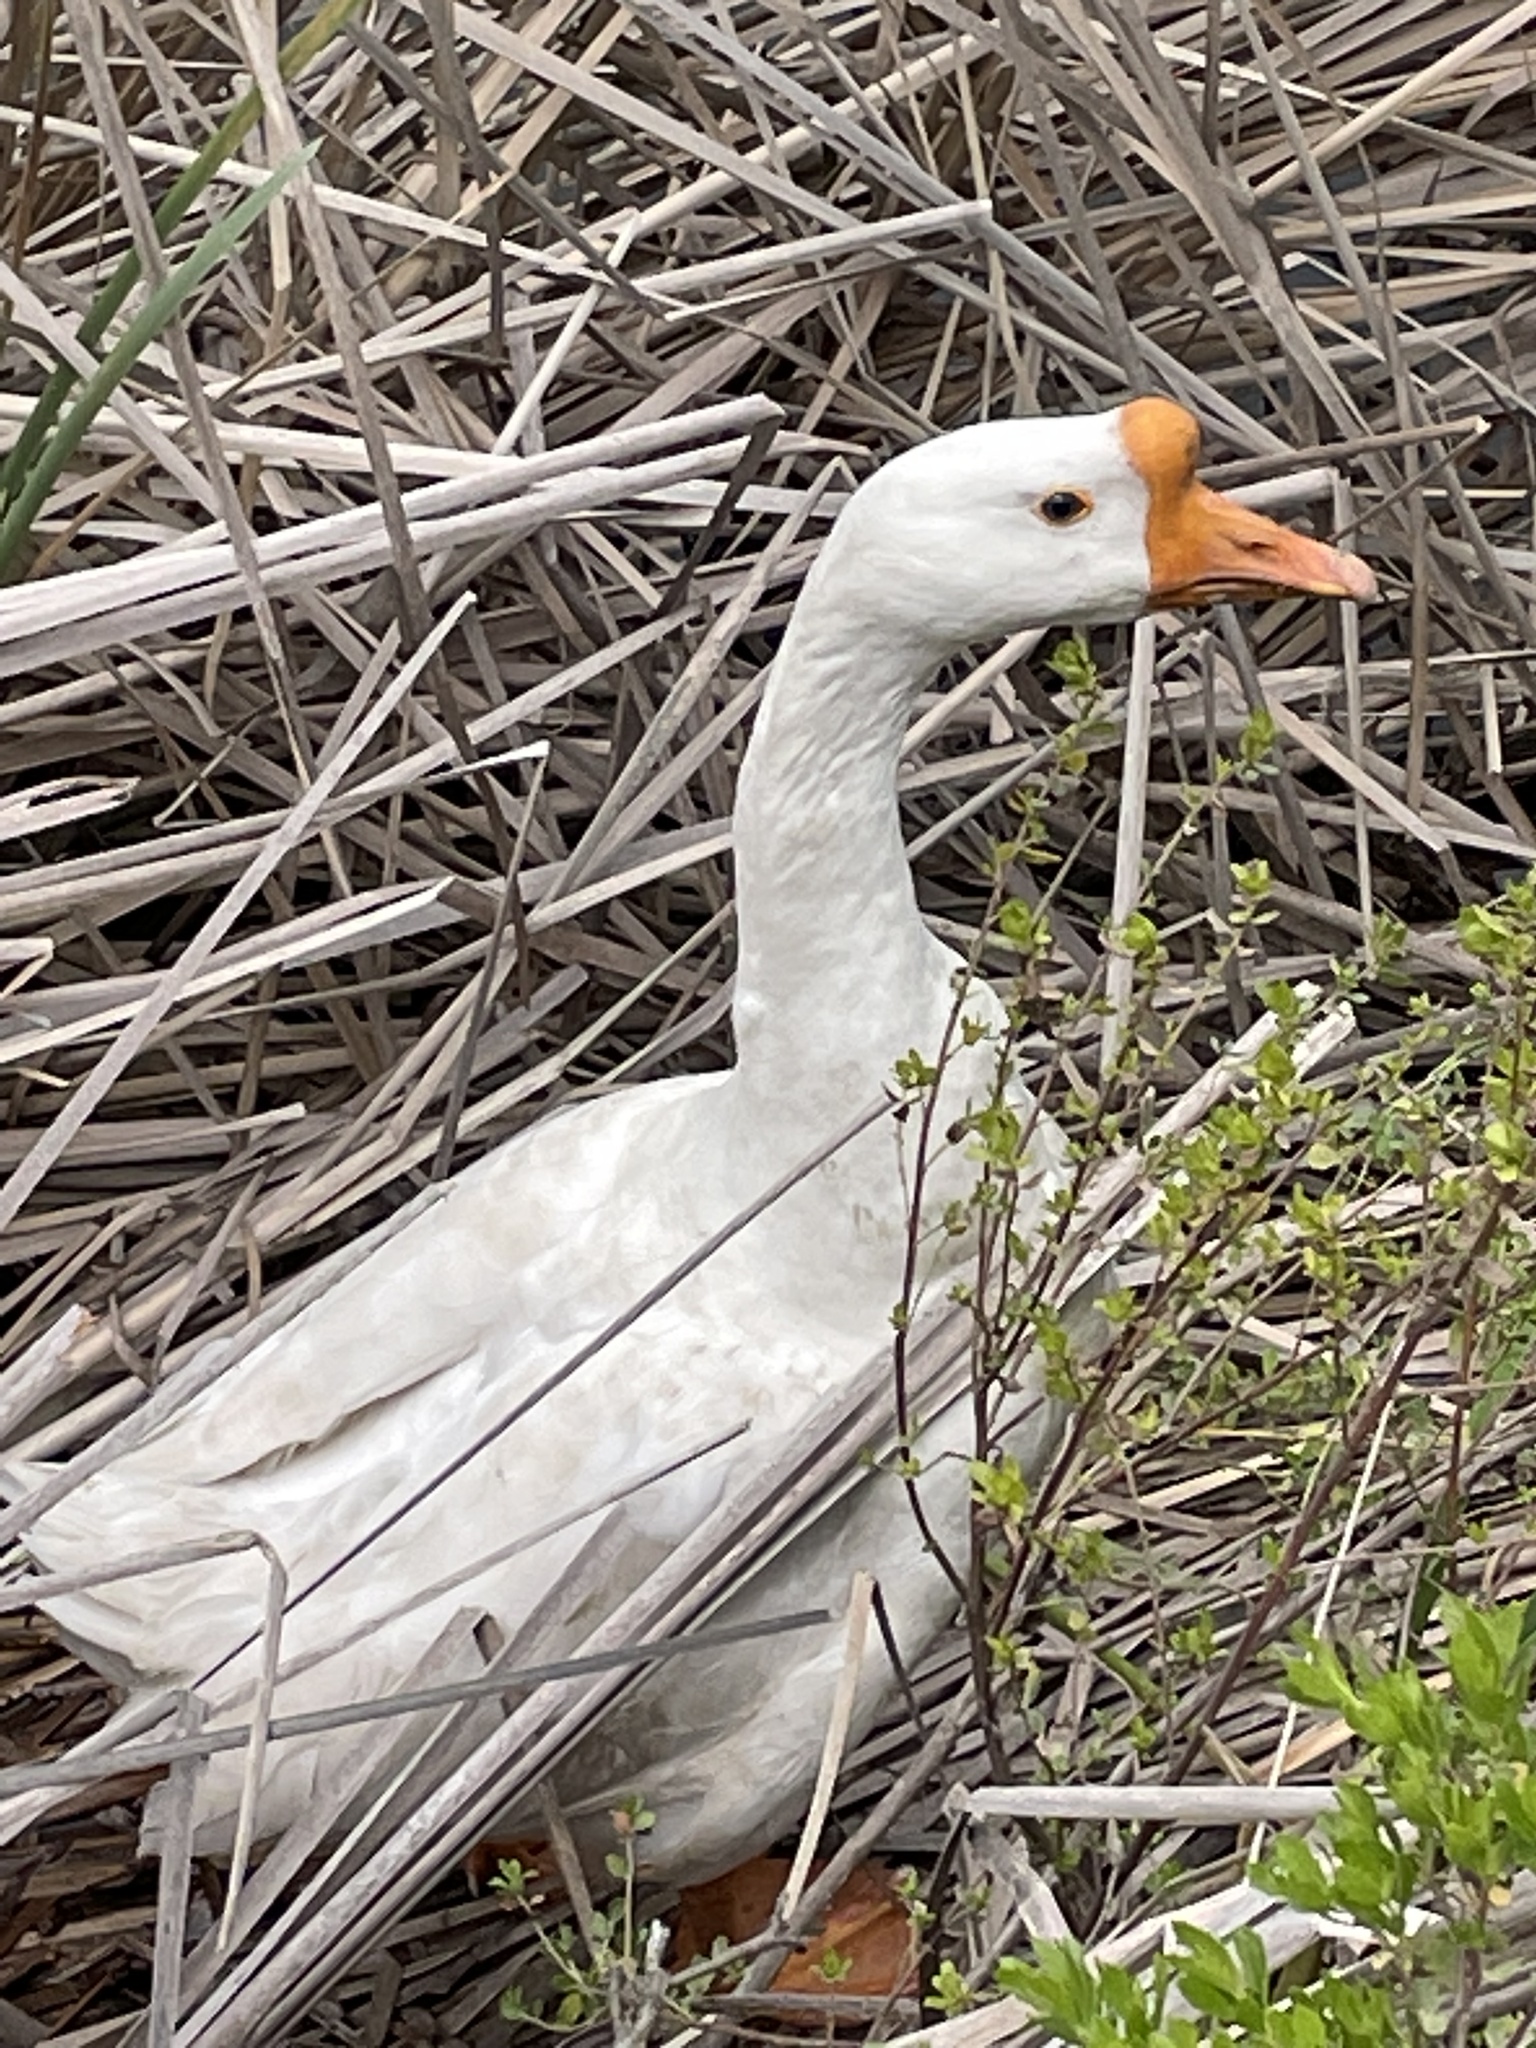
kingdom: Animalia
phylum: Chordata
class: Aves
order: Anseriformes
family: Anatidae
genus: Anser
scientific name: Anser cygnoides
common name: Swan goose
